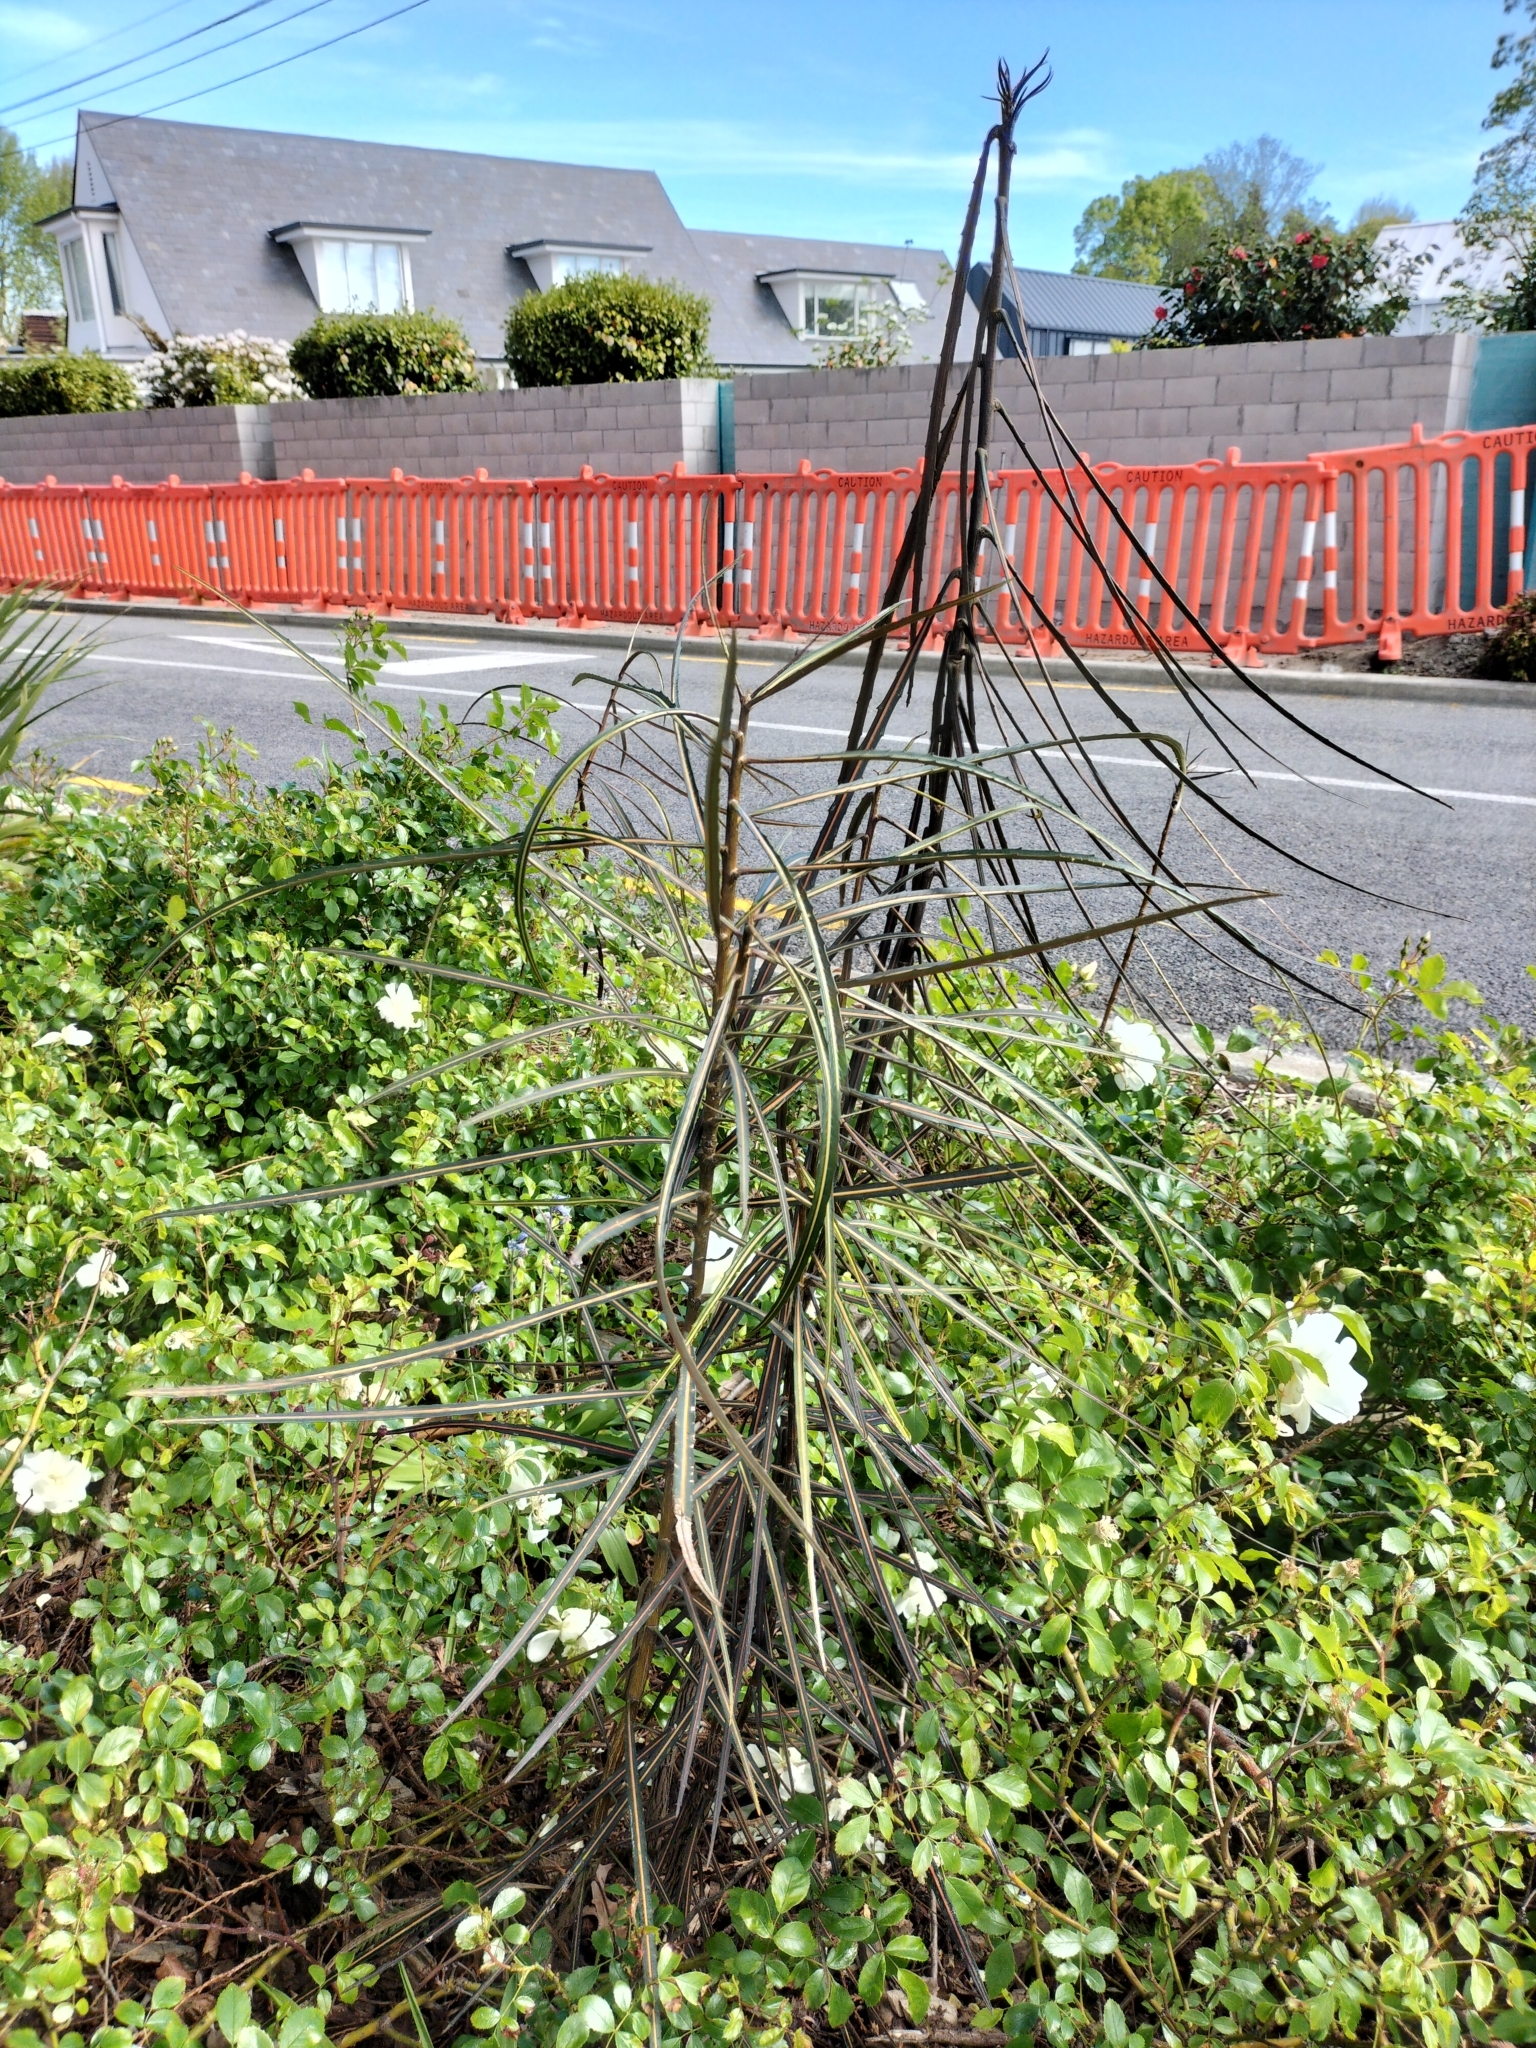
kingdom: Plantae
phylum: Tracheophyta
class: Magnoliopsida
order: Apiales
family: Araliaceae
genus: Pseudopanax
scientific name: Pseudopanax crassifolius
